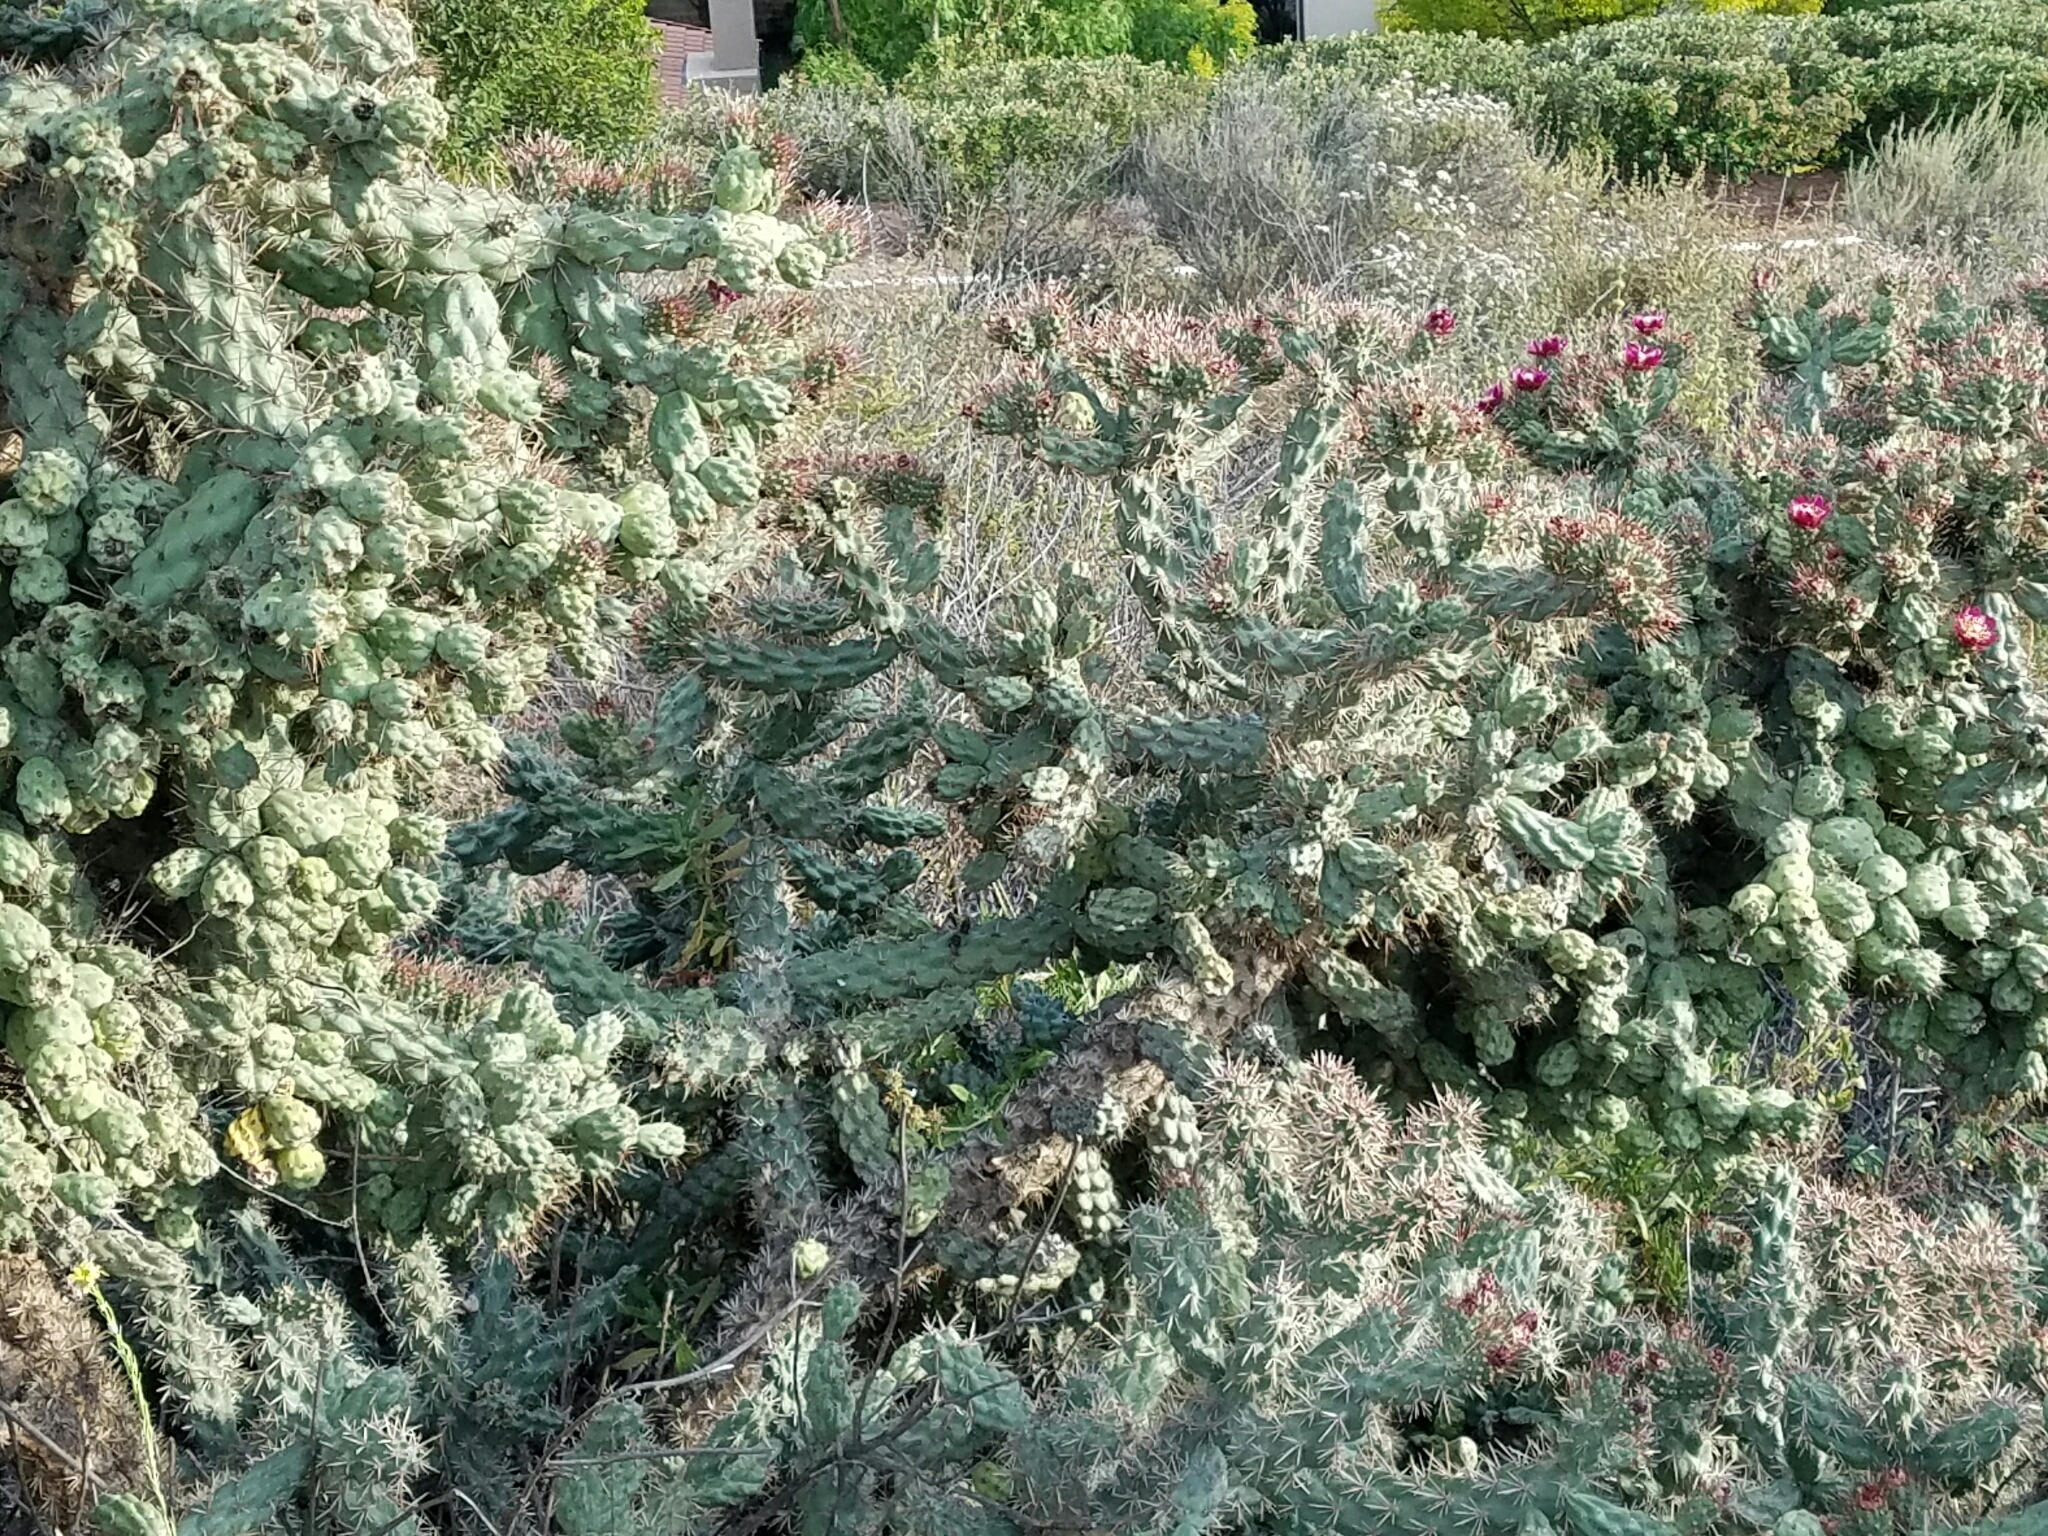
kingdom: Plantae
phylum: Tracheophyta
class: Magnoliopsida
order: Caryophyllales
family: Cactaceae
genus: Cylindropuntia
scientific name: Cylindropuntia prolifera
